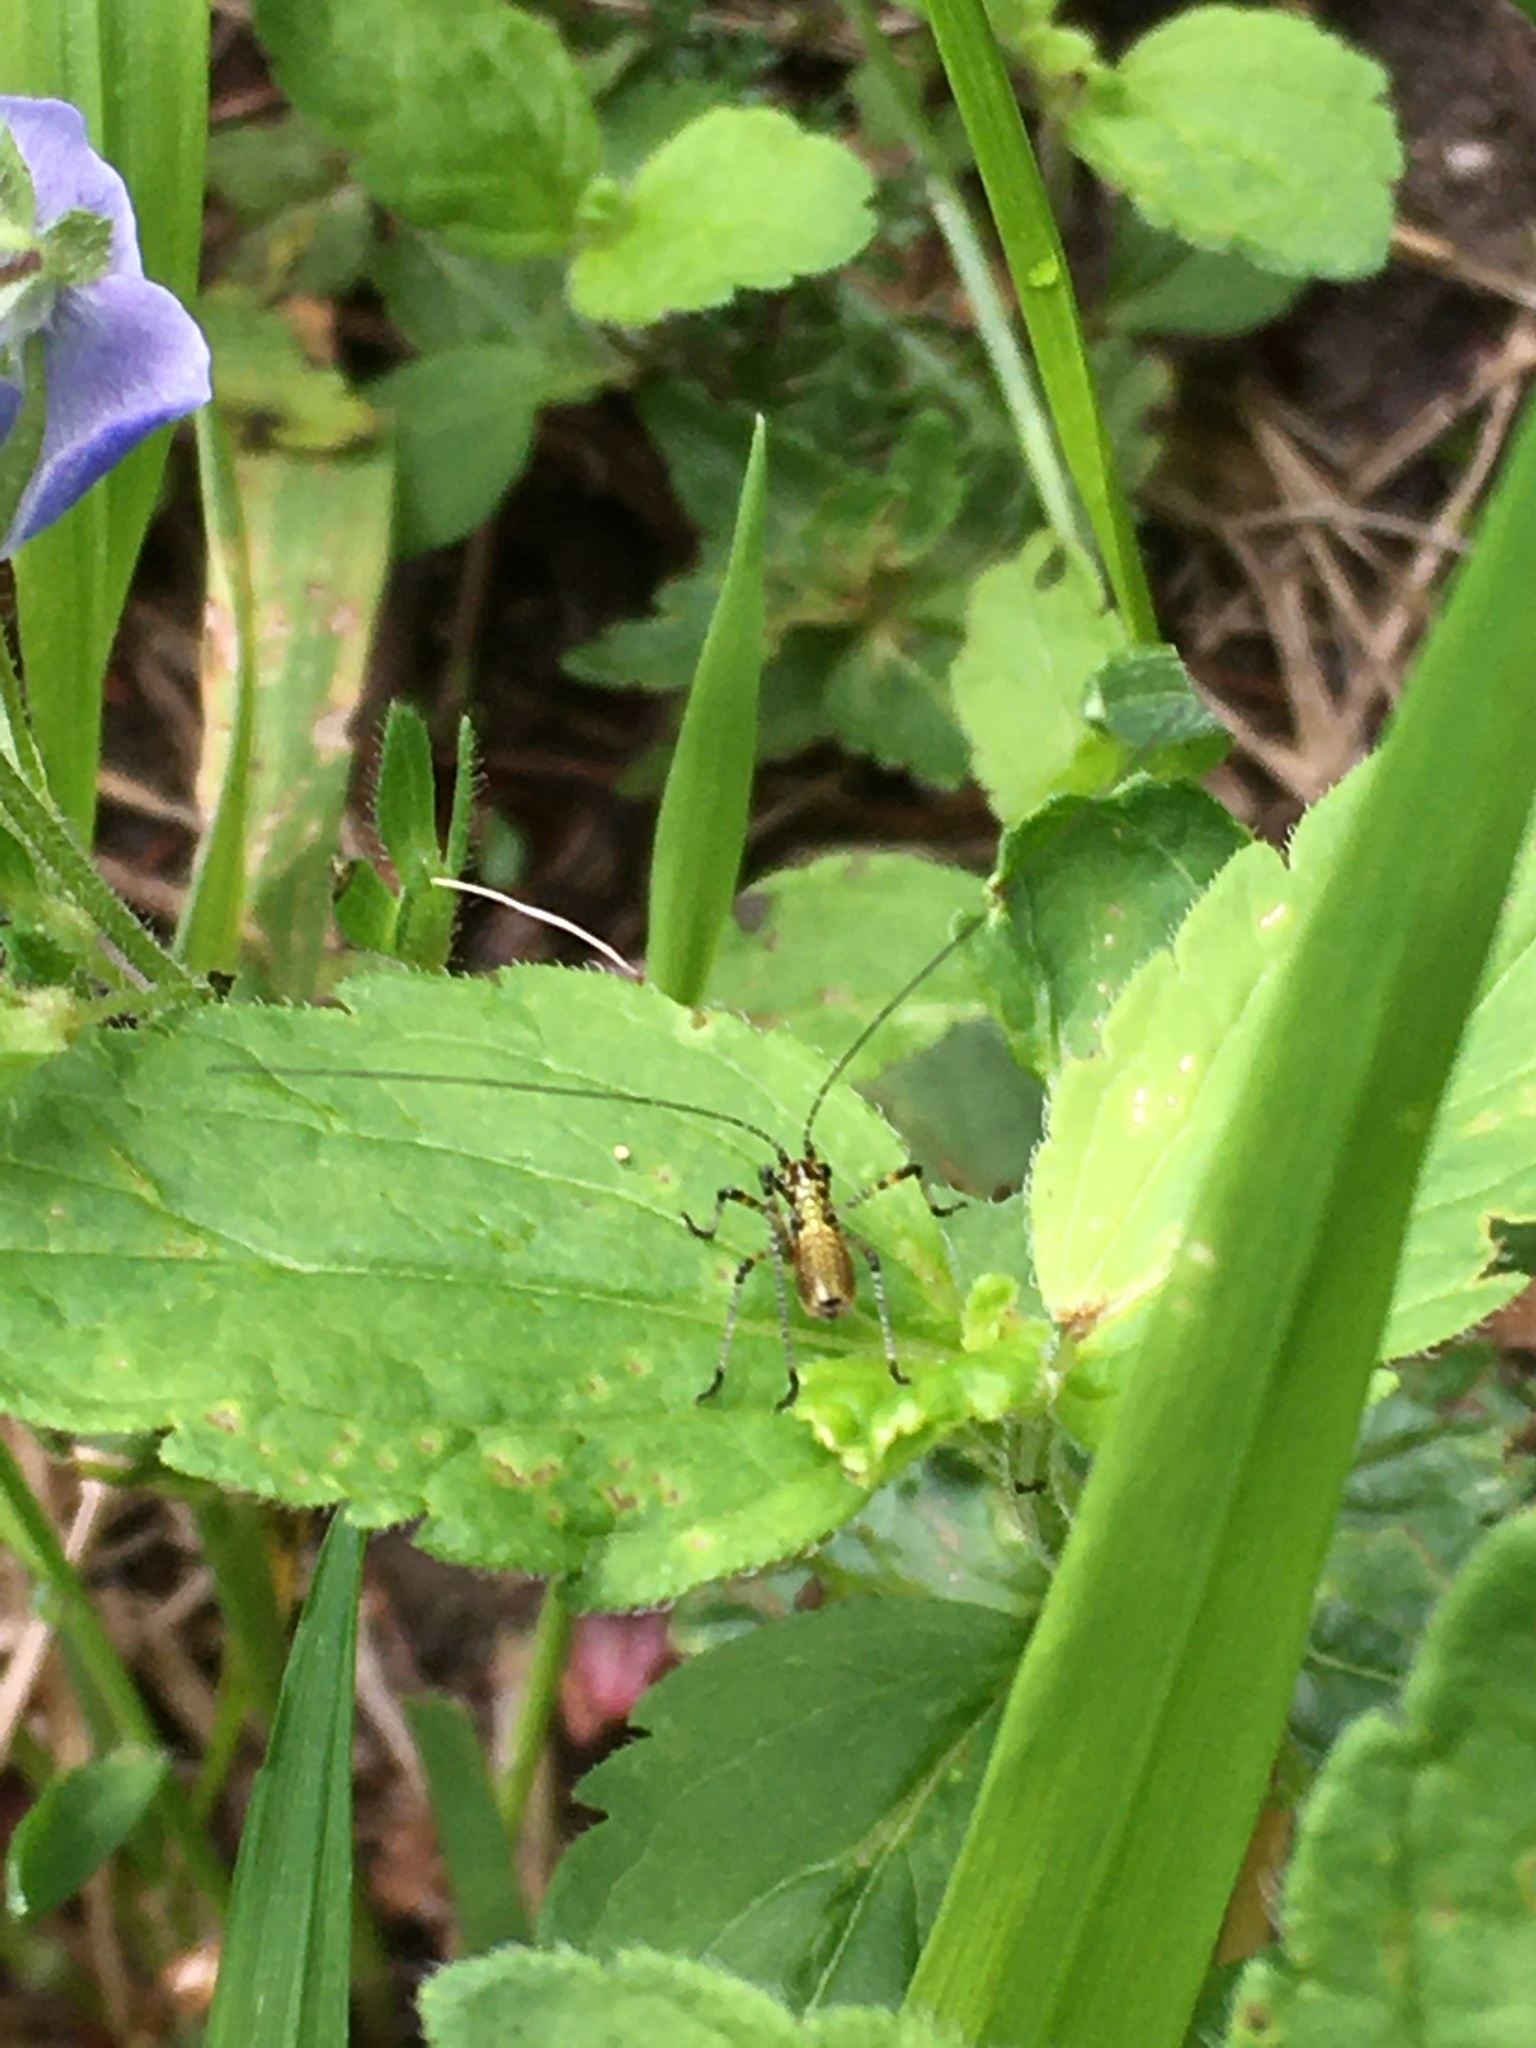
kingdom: Animalia
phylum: Arthropoda
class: Insecta
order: Orthoptera
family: Tettigoniidae
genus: Phaneroptera
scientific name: Phaneroptera nana
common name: Southern sickle bush-cricket
